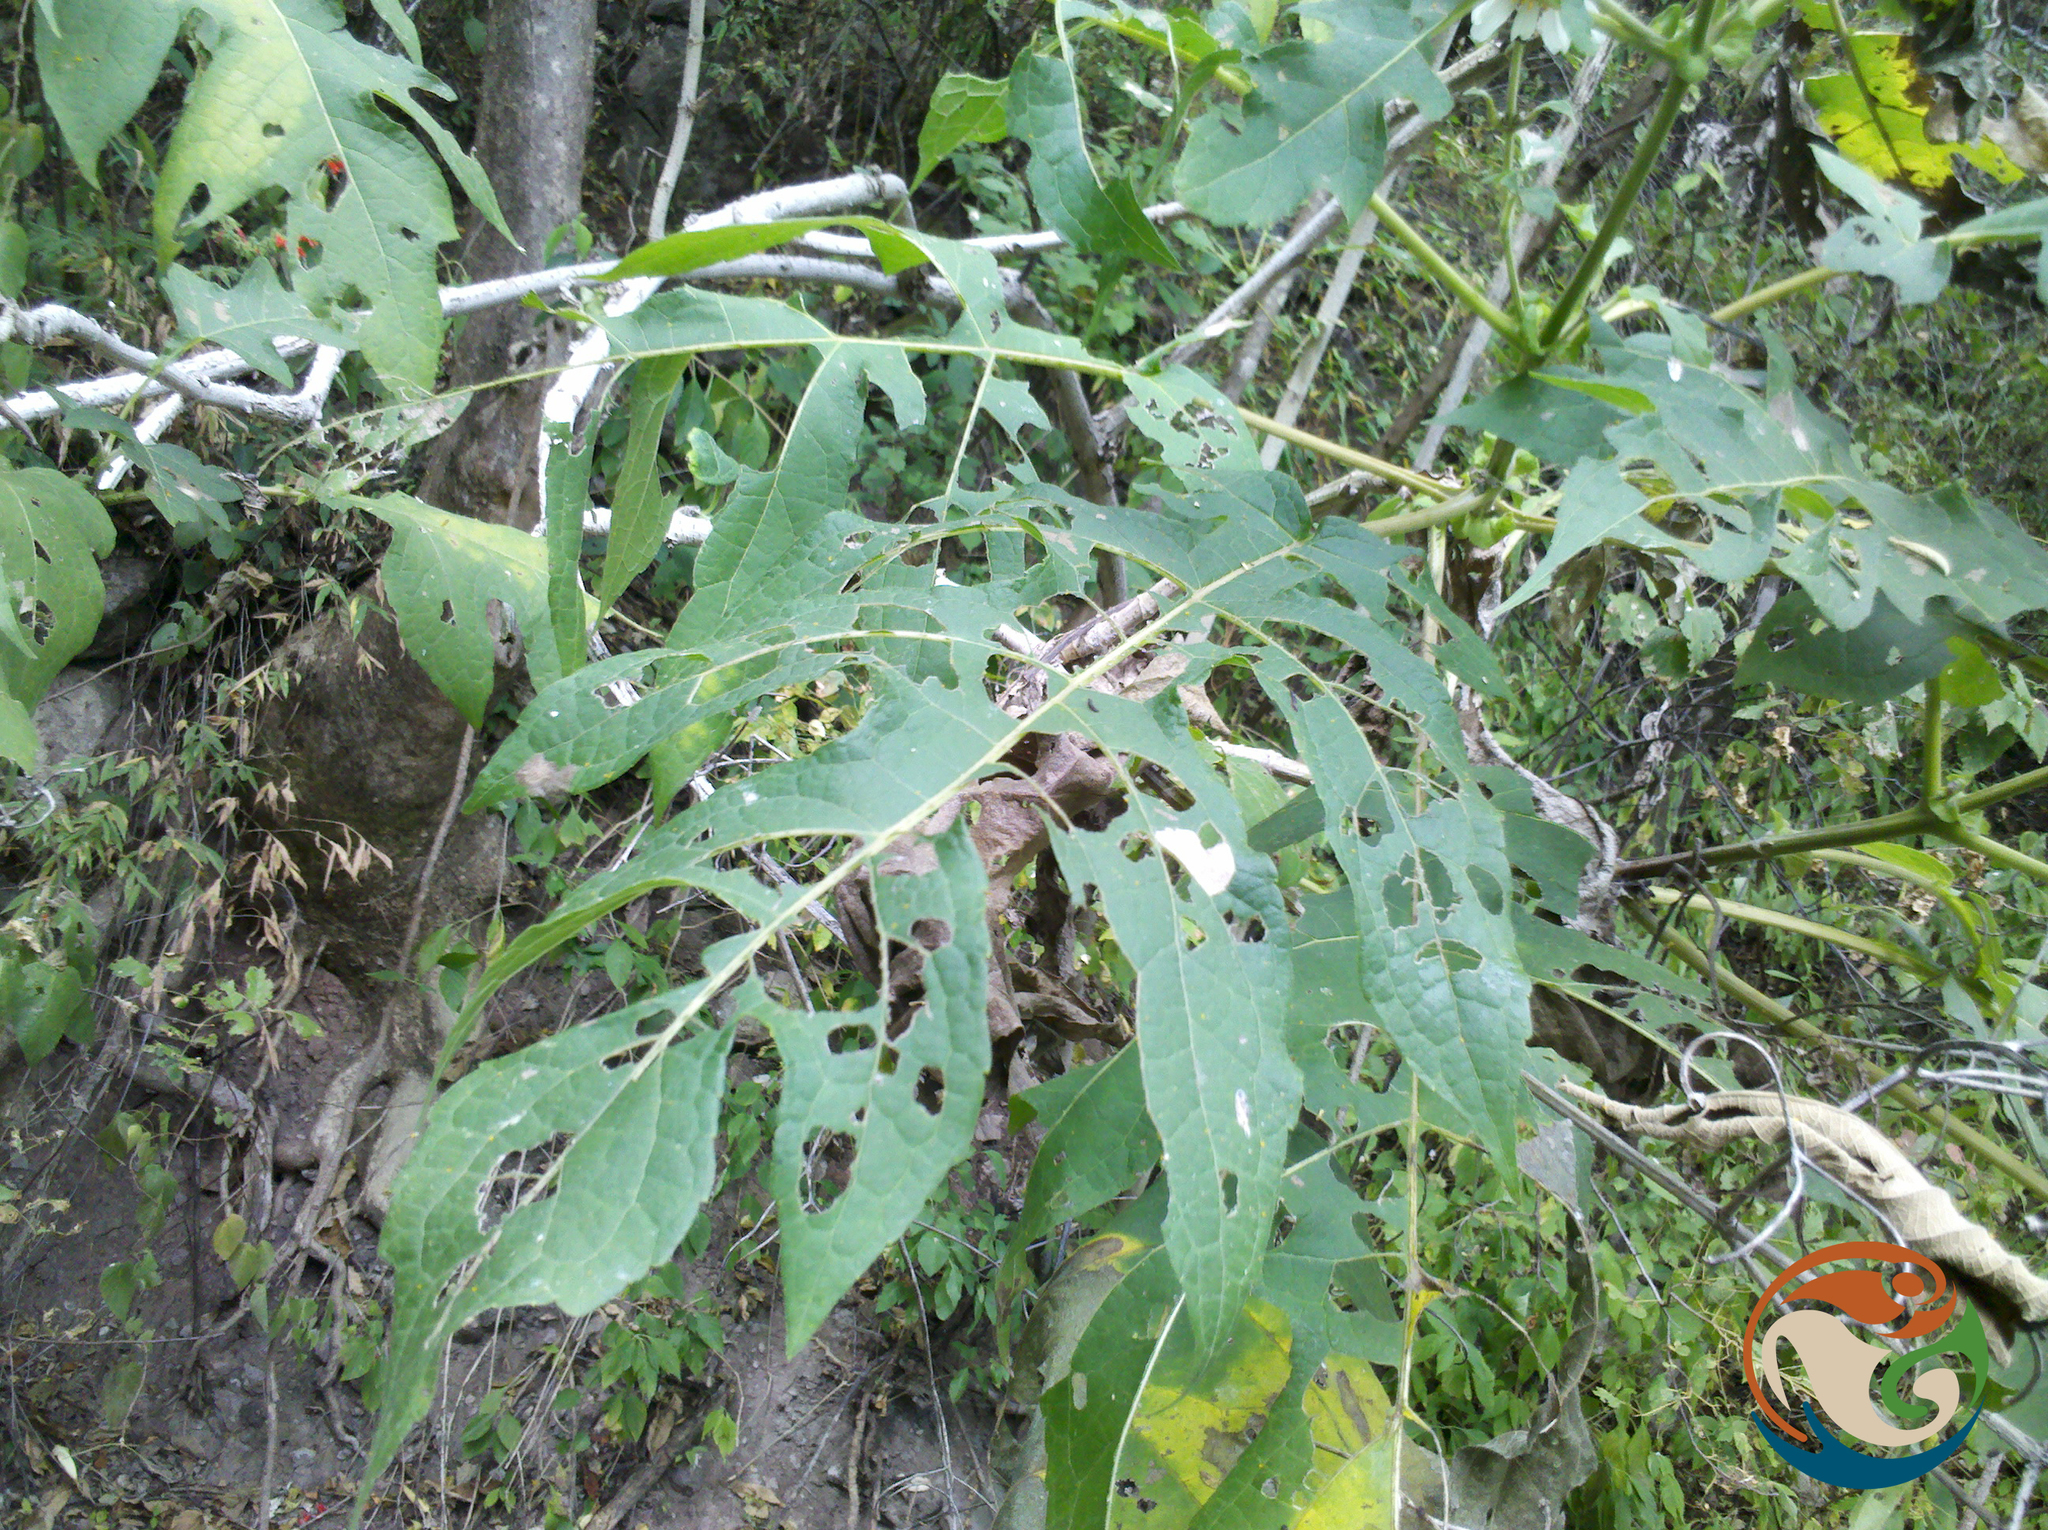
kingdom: Plantae
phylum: Tracheophyta
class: Magnoliopsida
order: Asterales
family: Asteraceae
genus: Montanoa
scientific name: Montanoa bipinnatifida
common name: Mexican daisy bush
